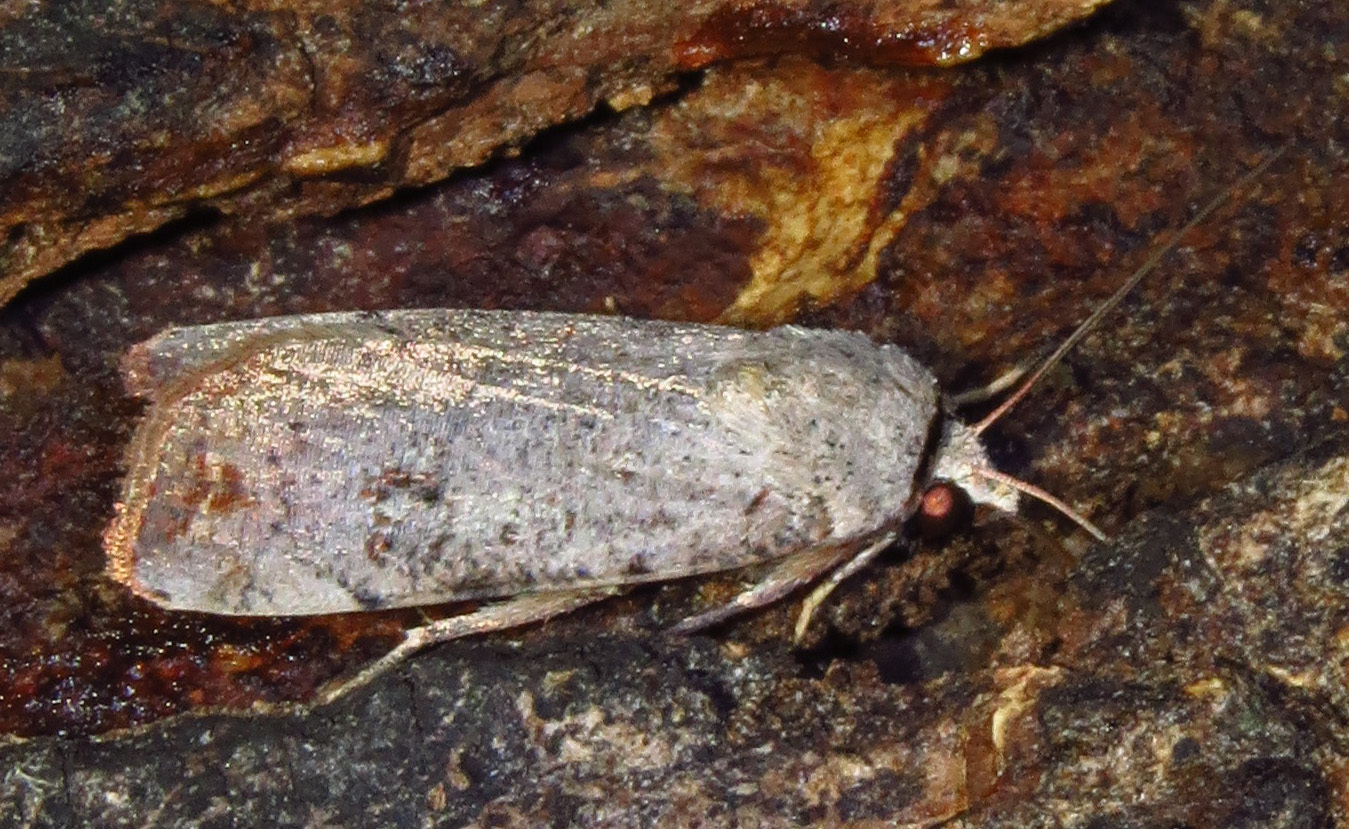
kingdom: Animalia
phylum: Arthropoda
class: Insecta
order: Lepidoptera
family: Noctuidae
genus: Anicla
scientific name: Anicla infecta
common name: Green cutworm
